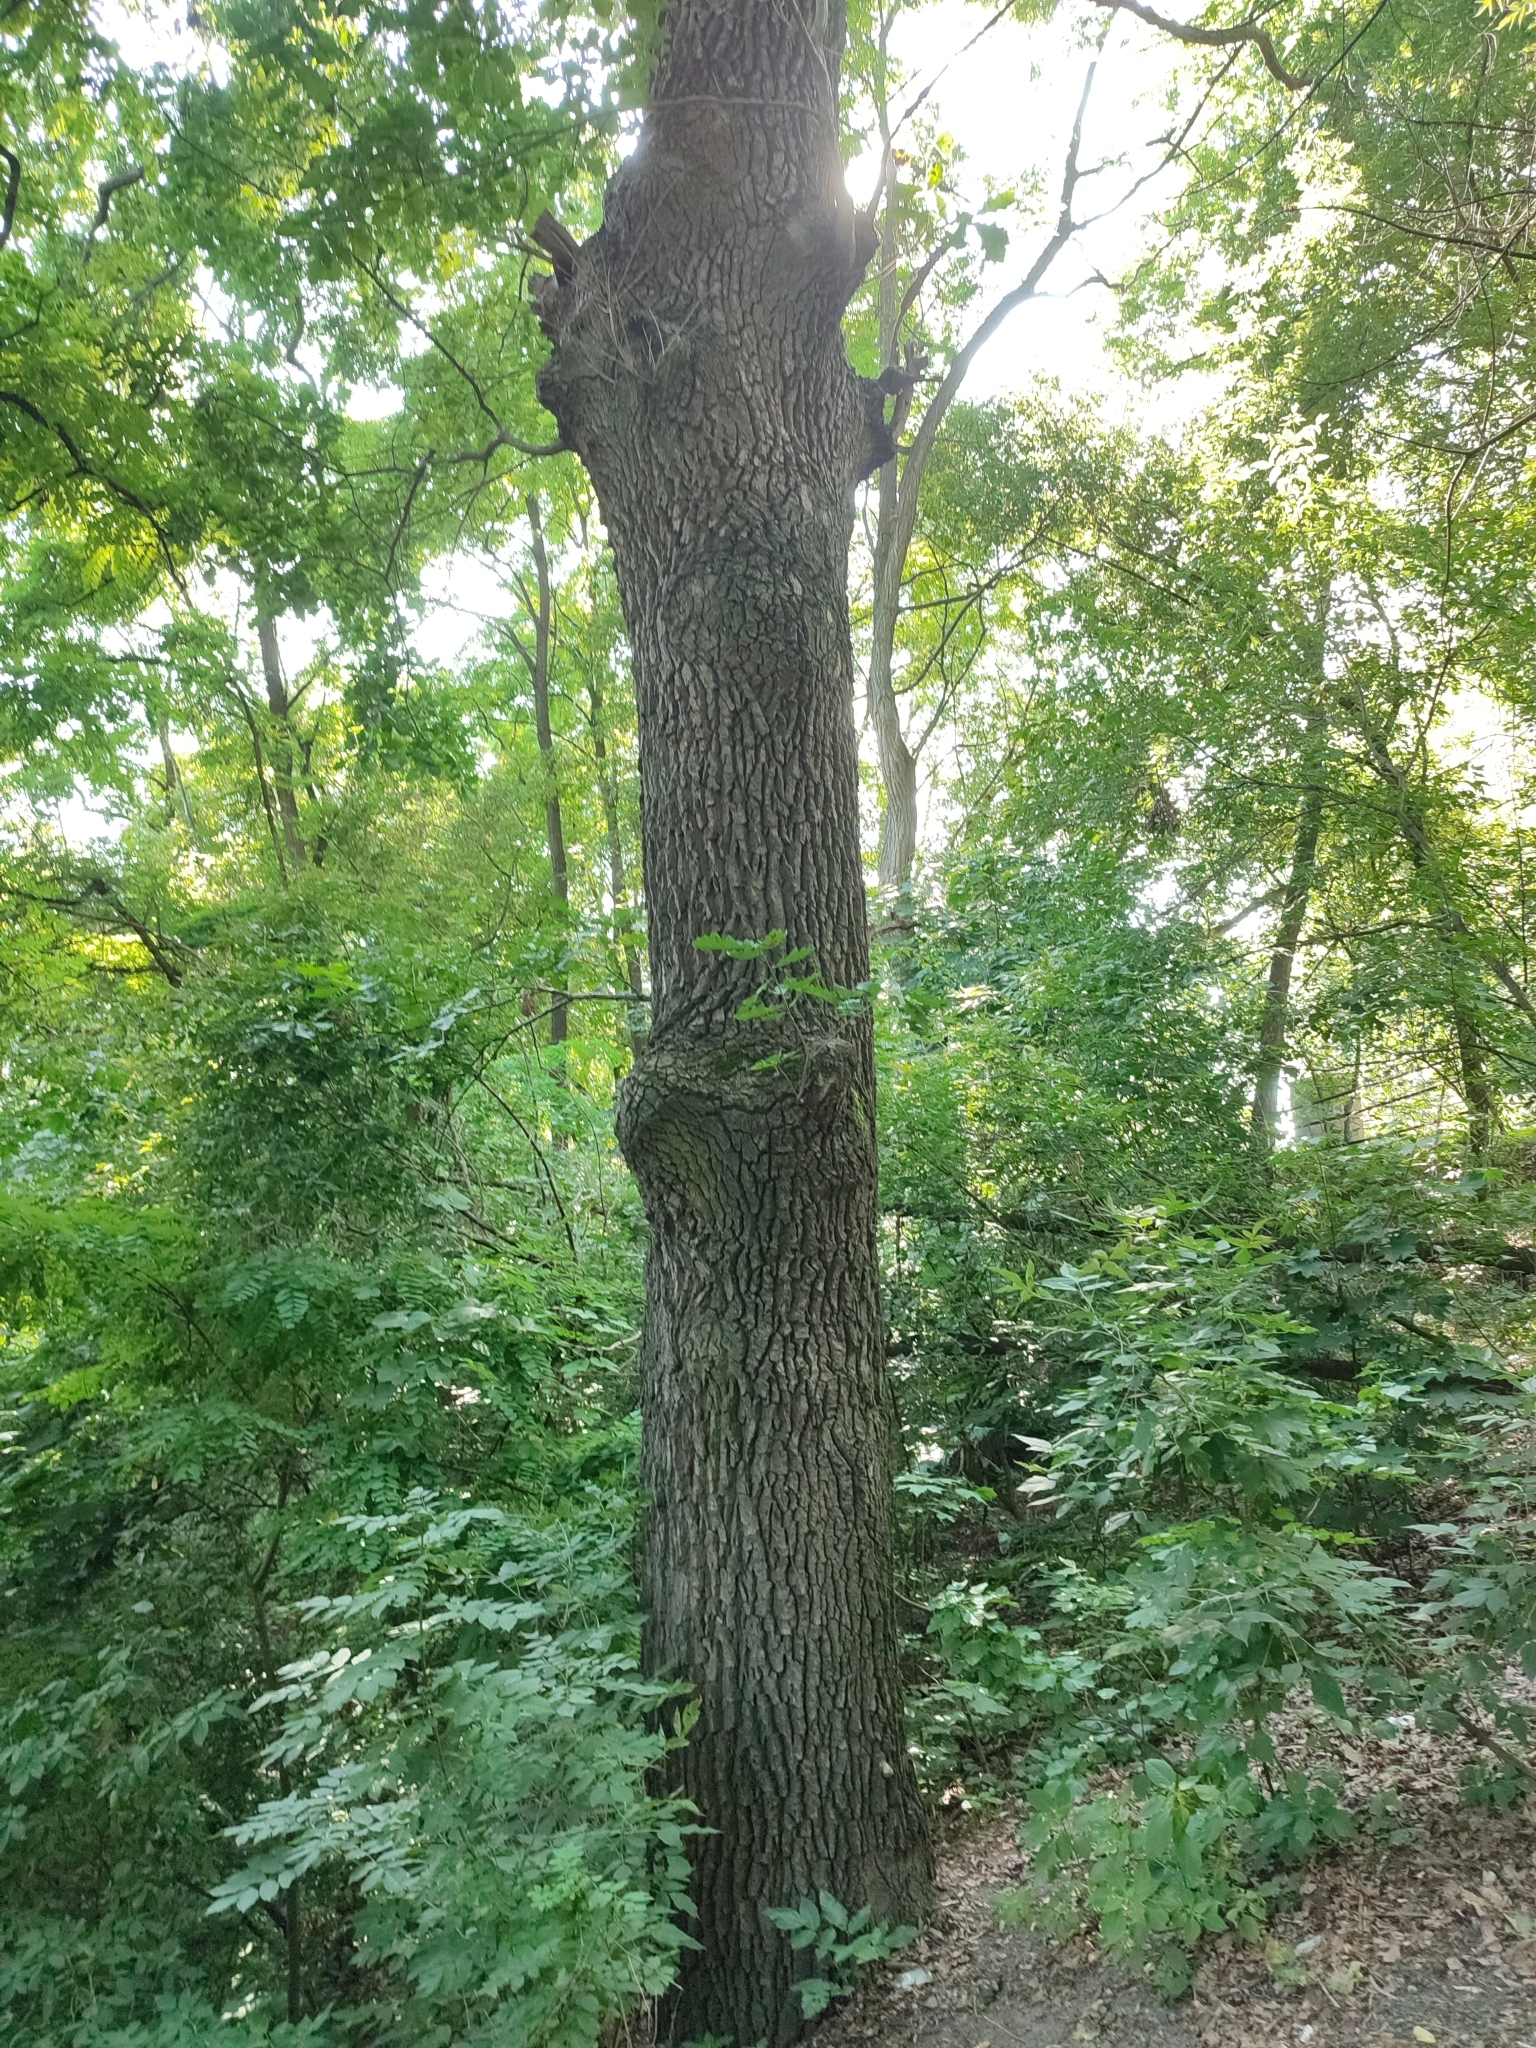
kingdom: Plantae
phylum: Tracheophyta
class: Magnoliopsida
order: Fagales
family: Fagaceae
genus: Quercus
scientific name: Quercus robur
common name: Pedunculate oak
